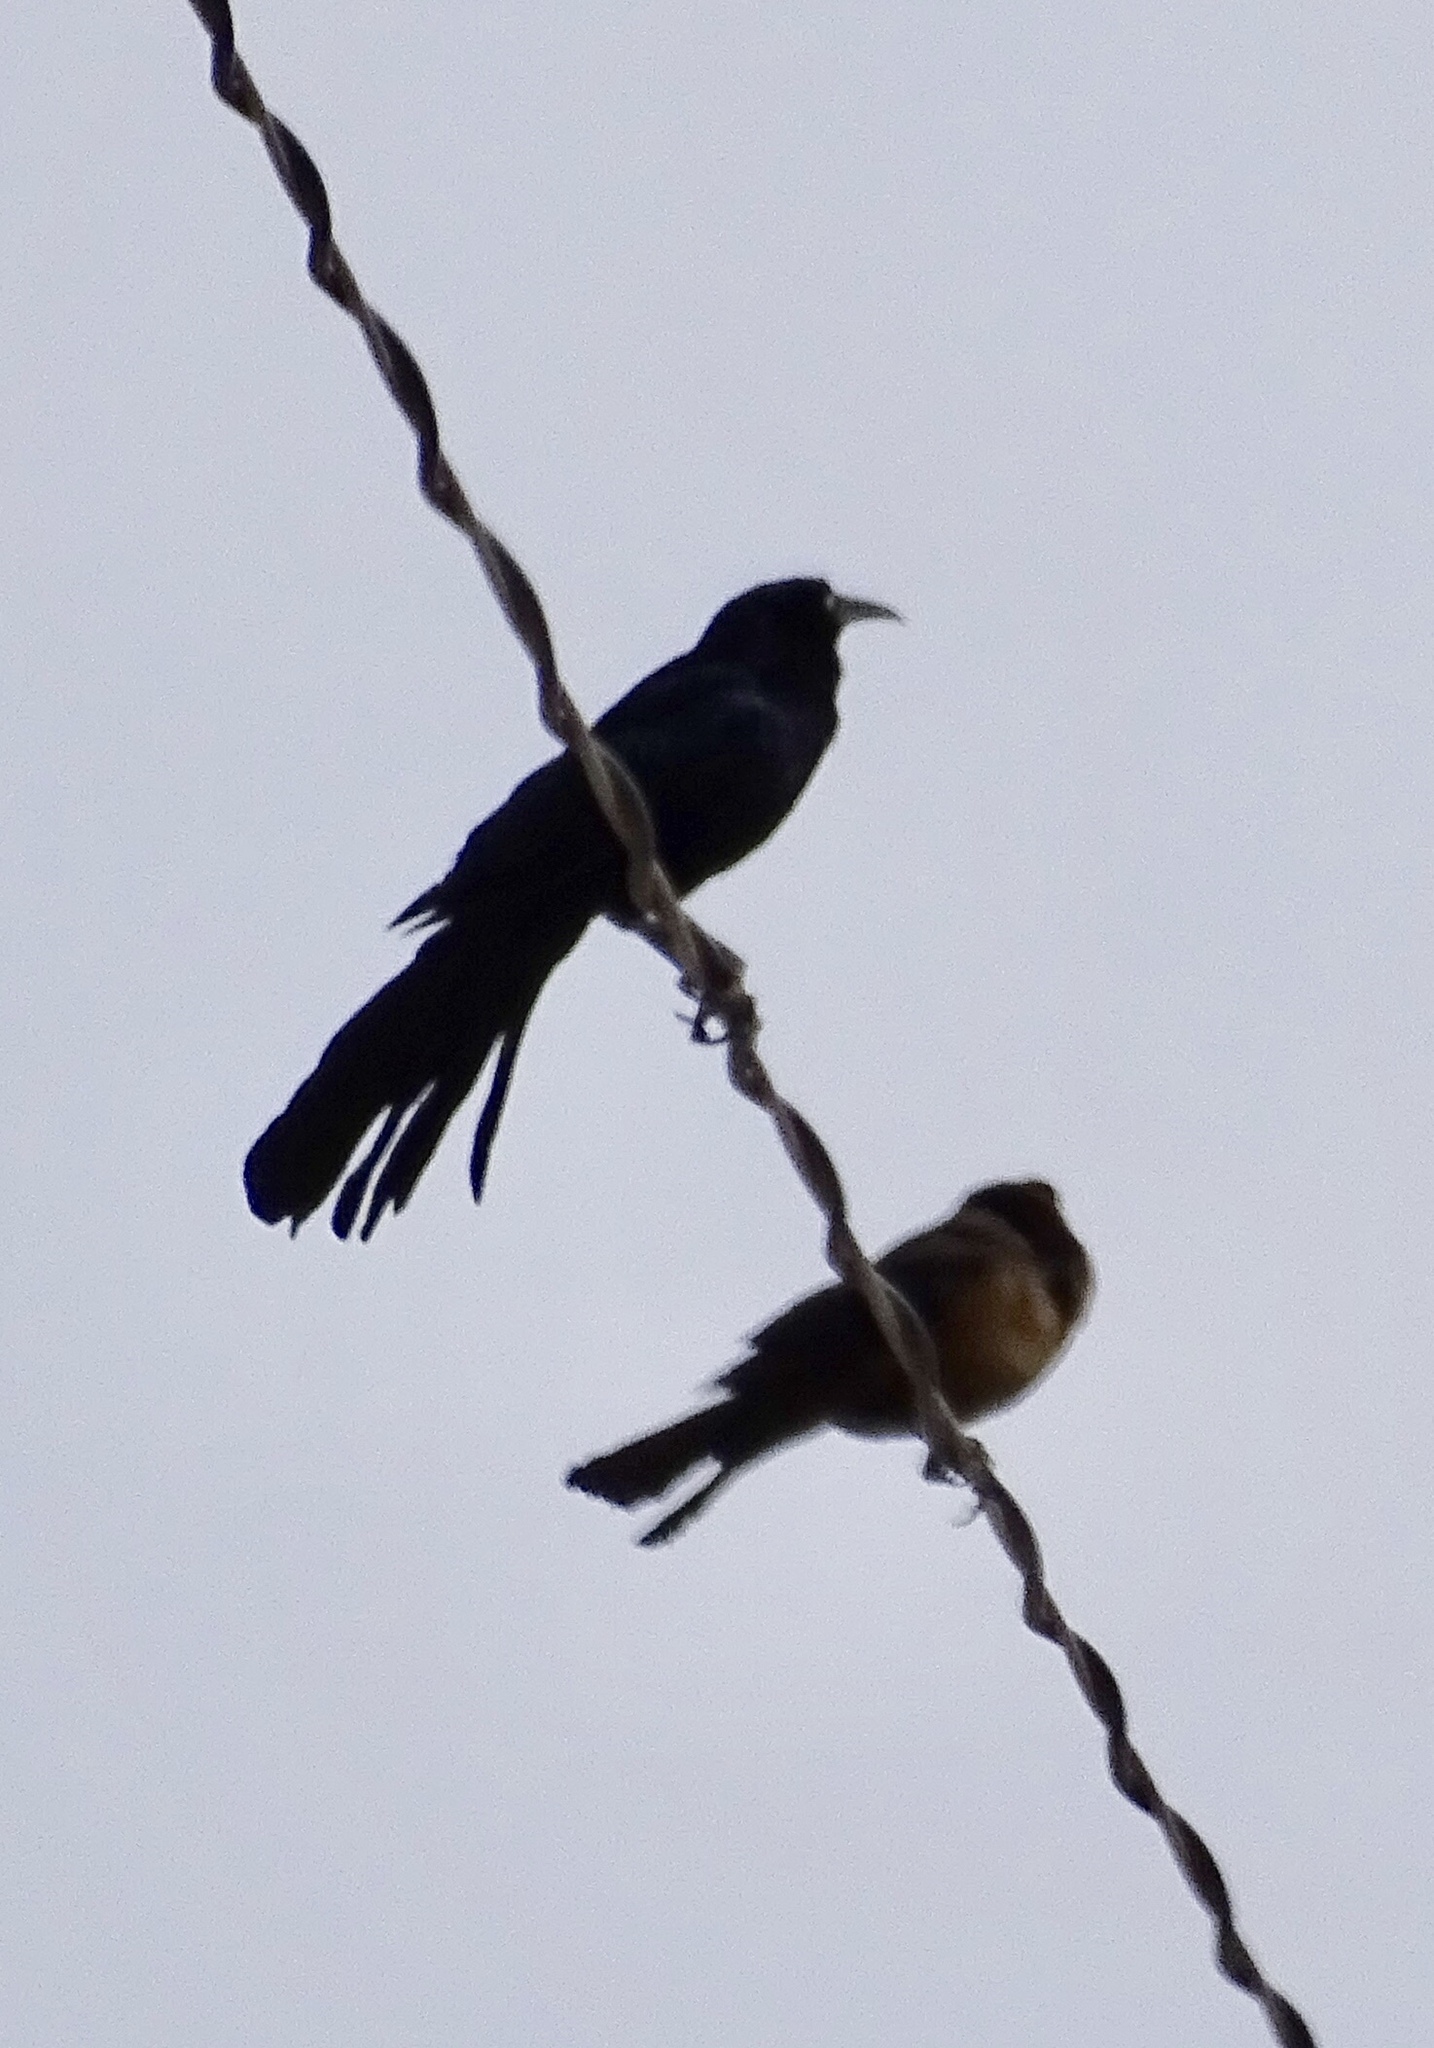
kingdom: Animalia
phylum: Chordata
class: Aves
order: Passeriformes
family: Icteridae
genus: Quiscalus
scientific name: Quiscalus mexicanus
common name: Great-tailed grackle
